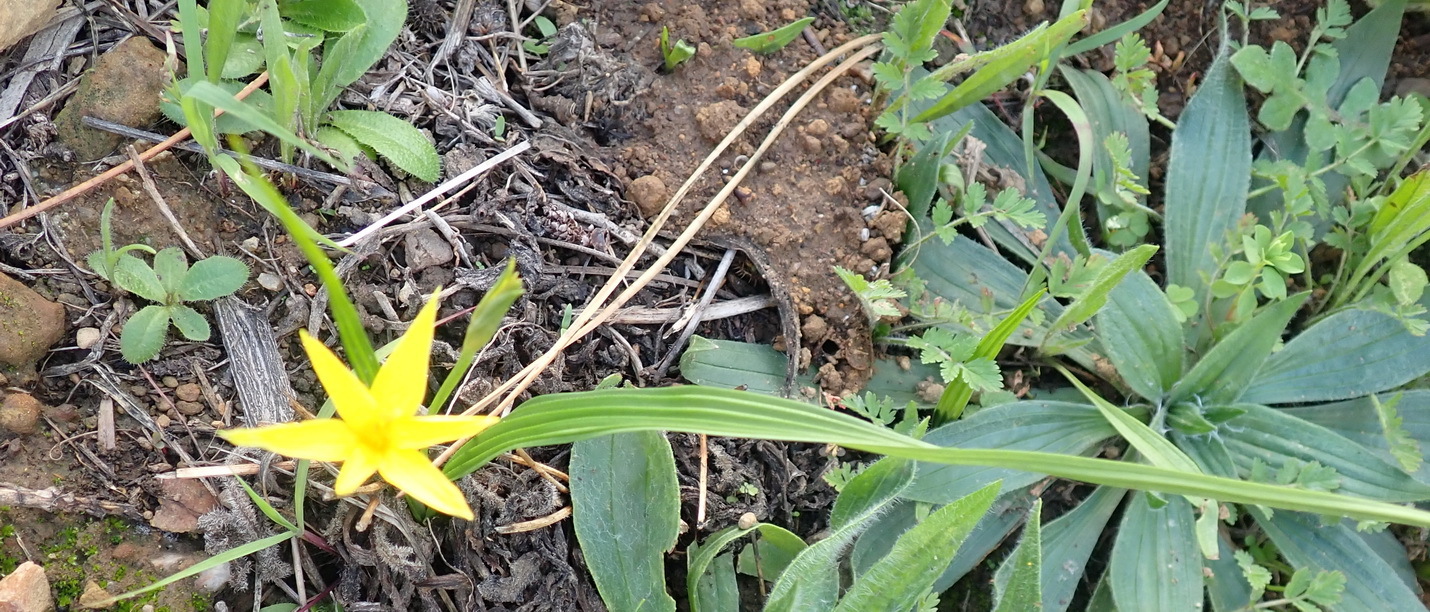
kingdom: Plantae
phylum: Tracheophyta
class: Liliopsida
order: Asparagales
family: Hypoxidaceae
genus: Empodium
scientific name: Empodium plicatum
